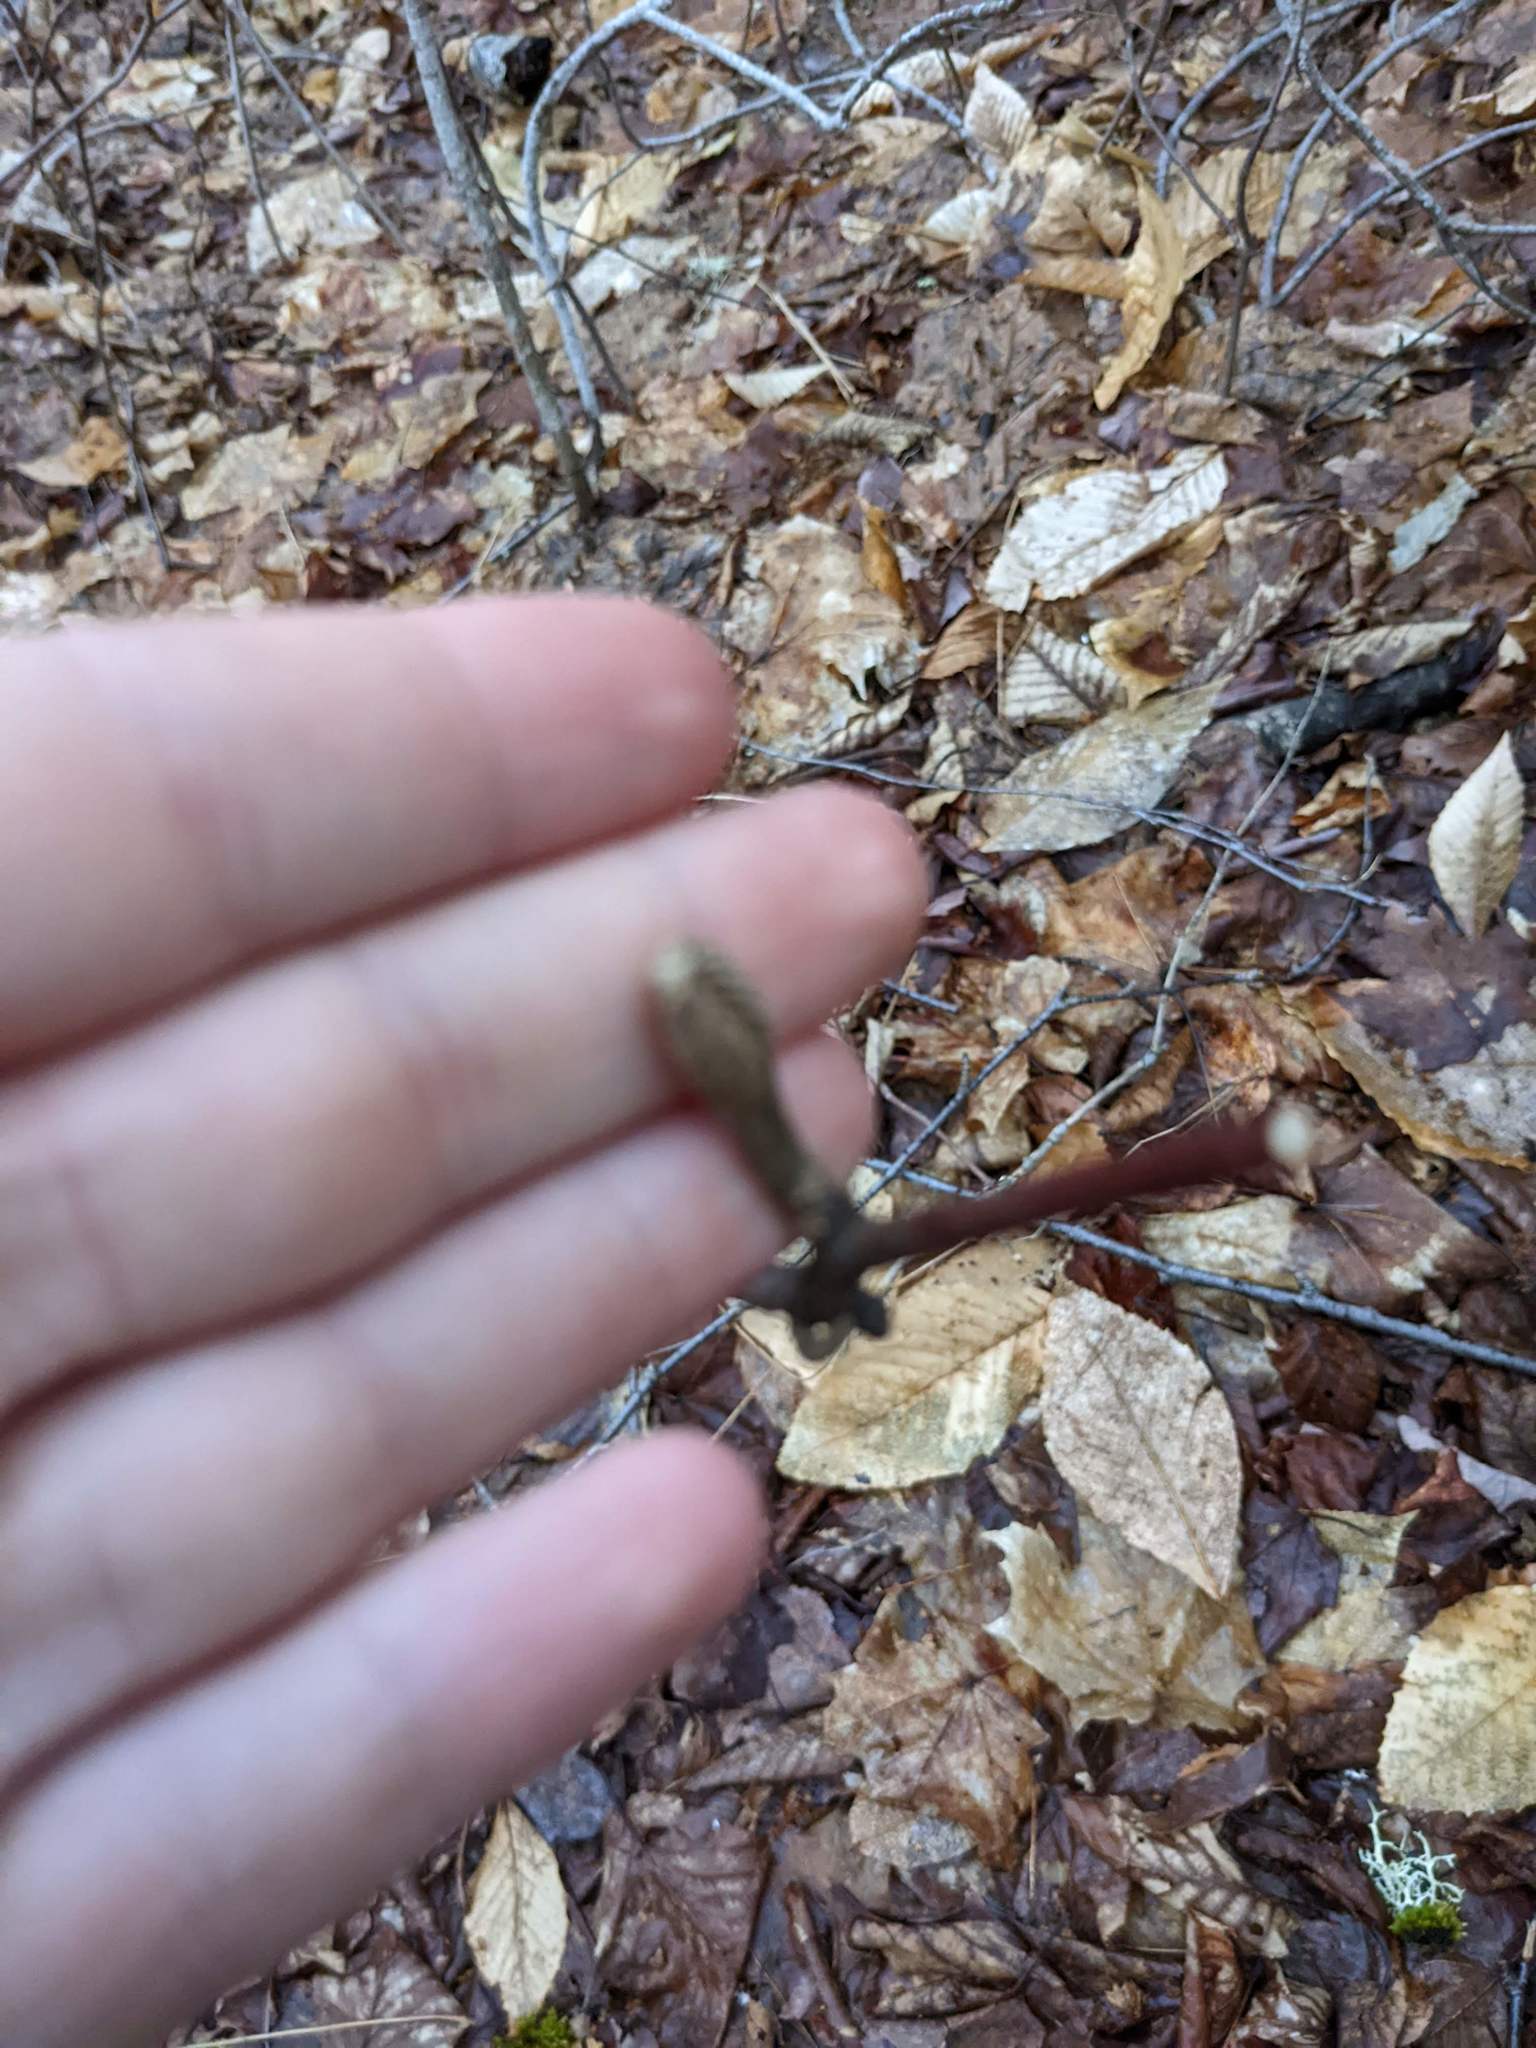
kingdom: Plantae
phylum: Tracheophyta
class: Magnoliopsida
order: Dipsacales
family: Viburnaceae
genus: Viburnum
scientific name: Viburnum lantanoides
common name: Hobblebush
